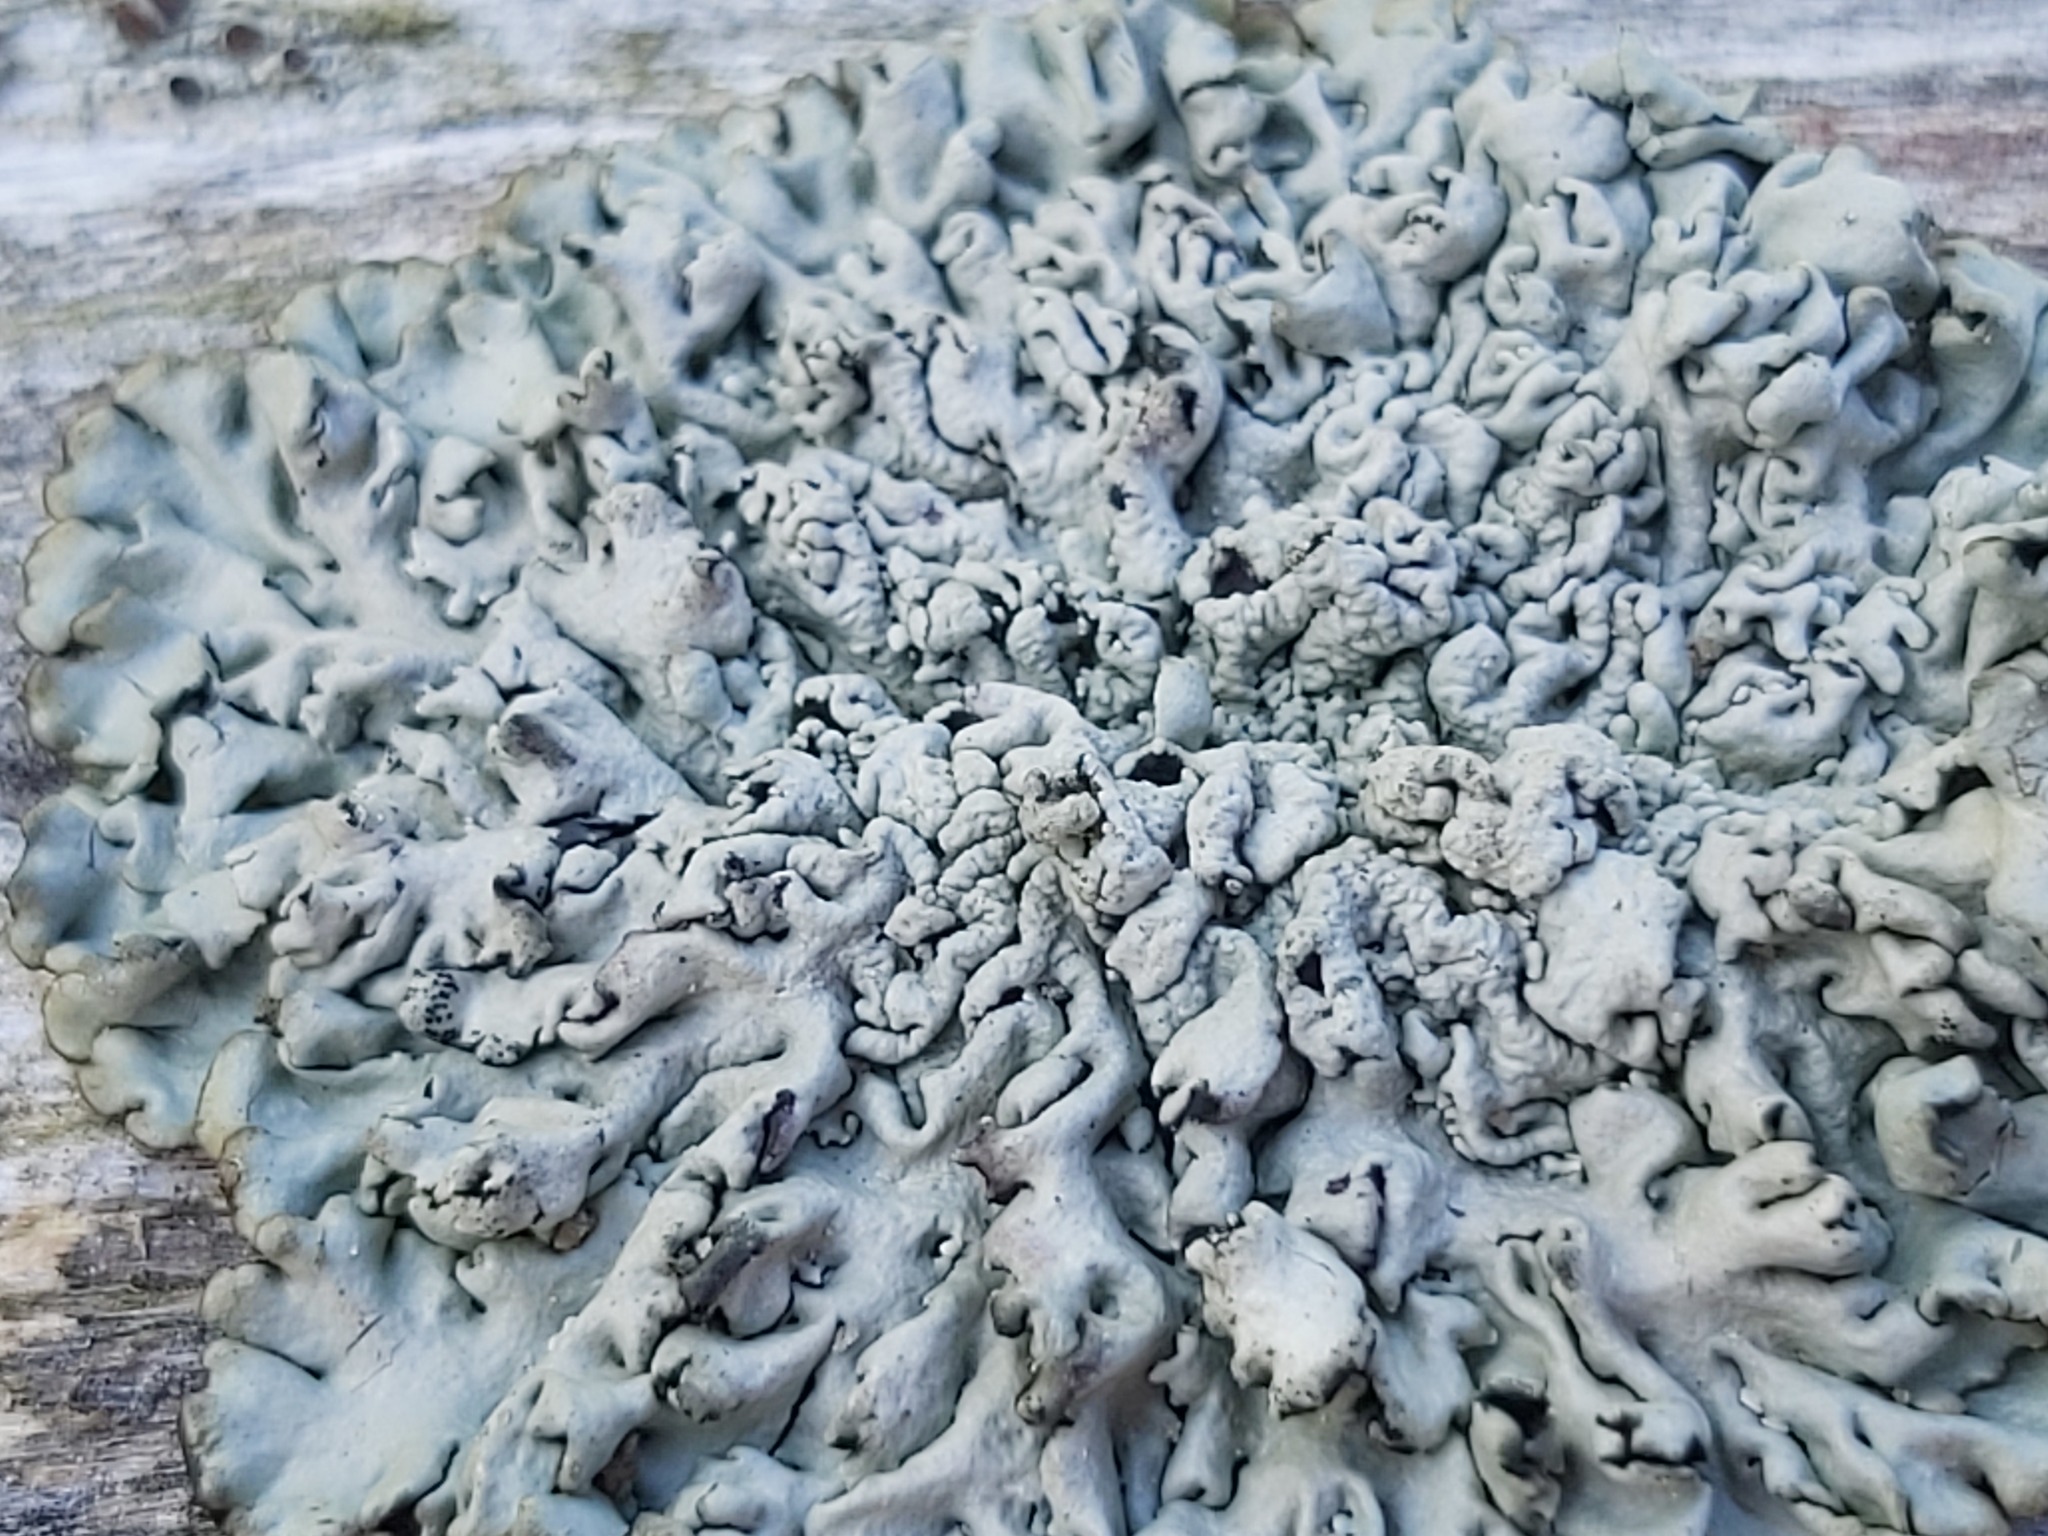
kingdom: Fungi
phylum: Ascomycota
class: Lecanoromycetes
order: Lecanorales
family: Parmeliaceae
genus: Hypogymnia
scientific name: Hypogymnia physodes
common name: Dark crottle
